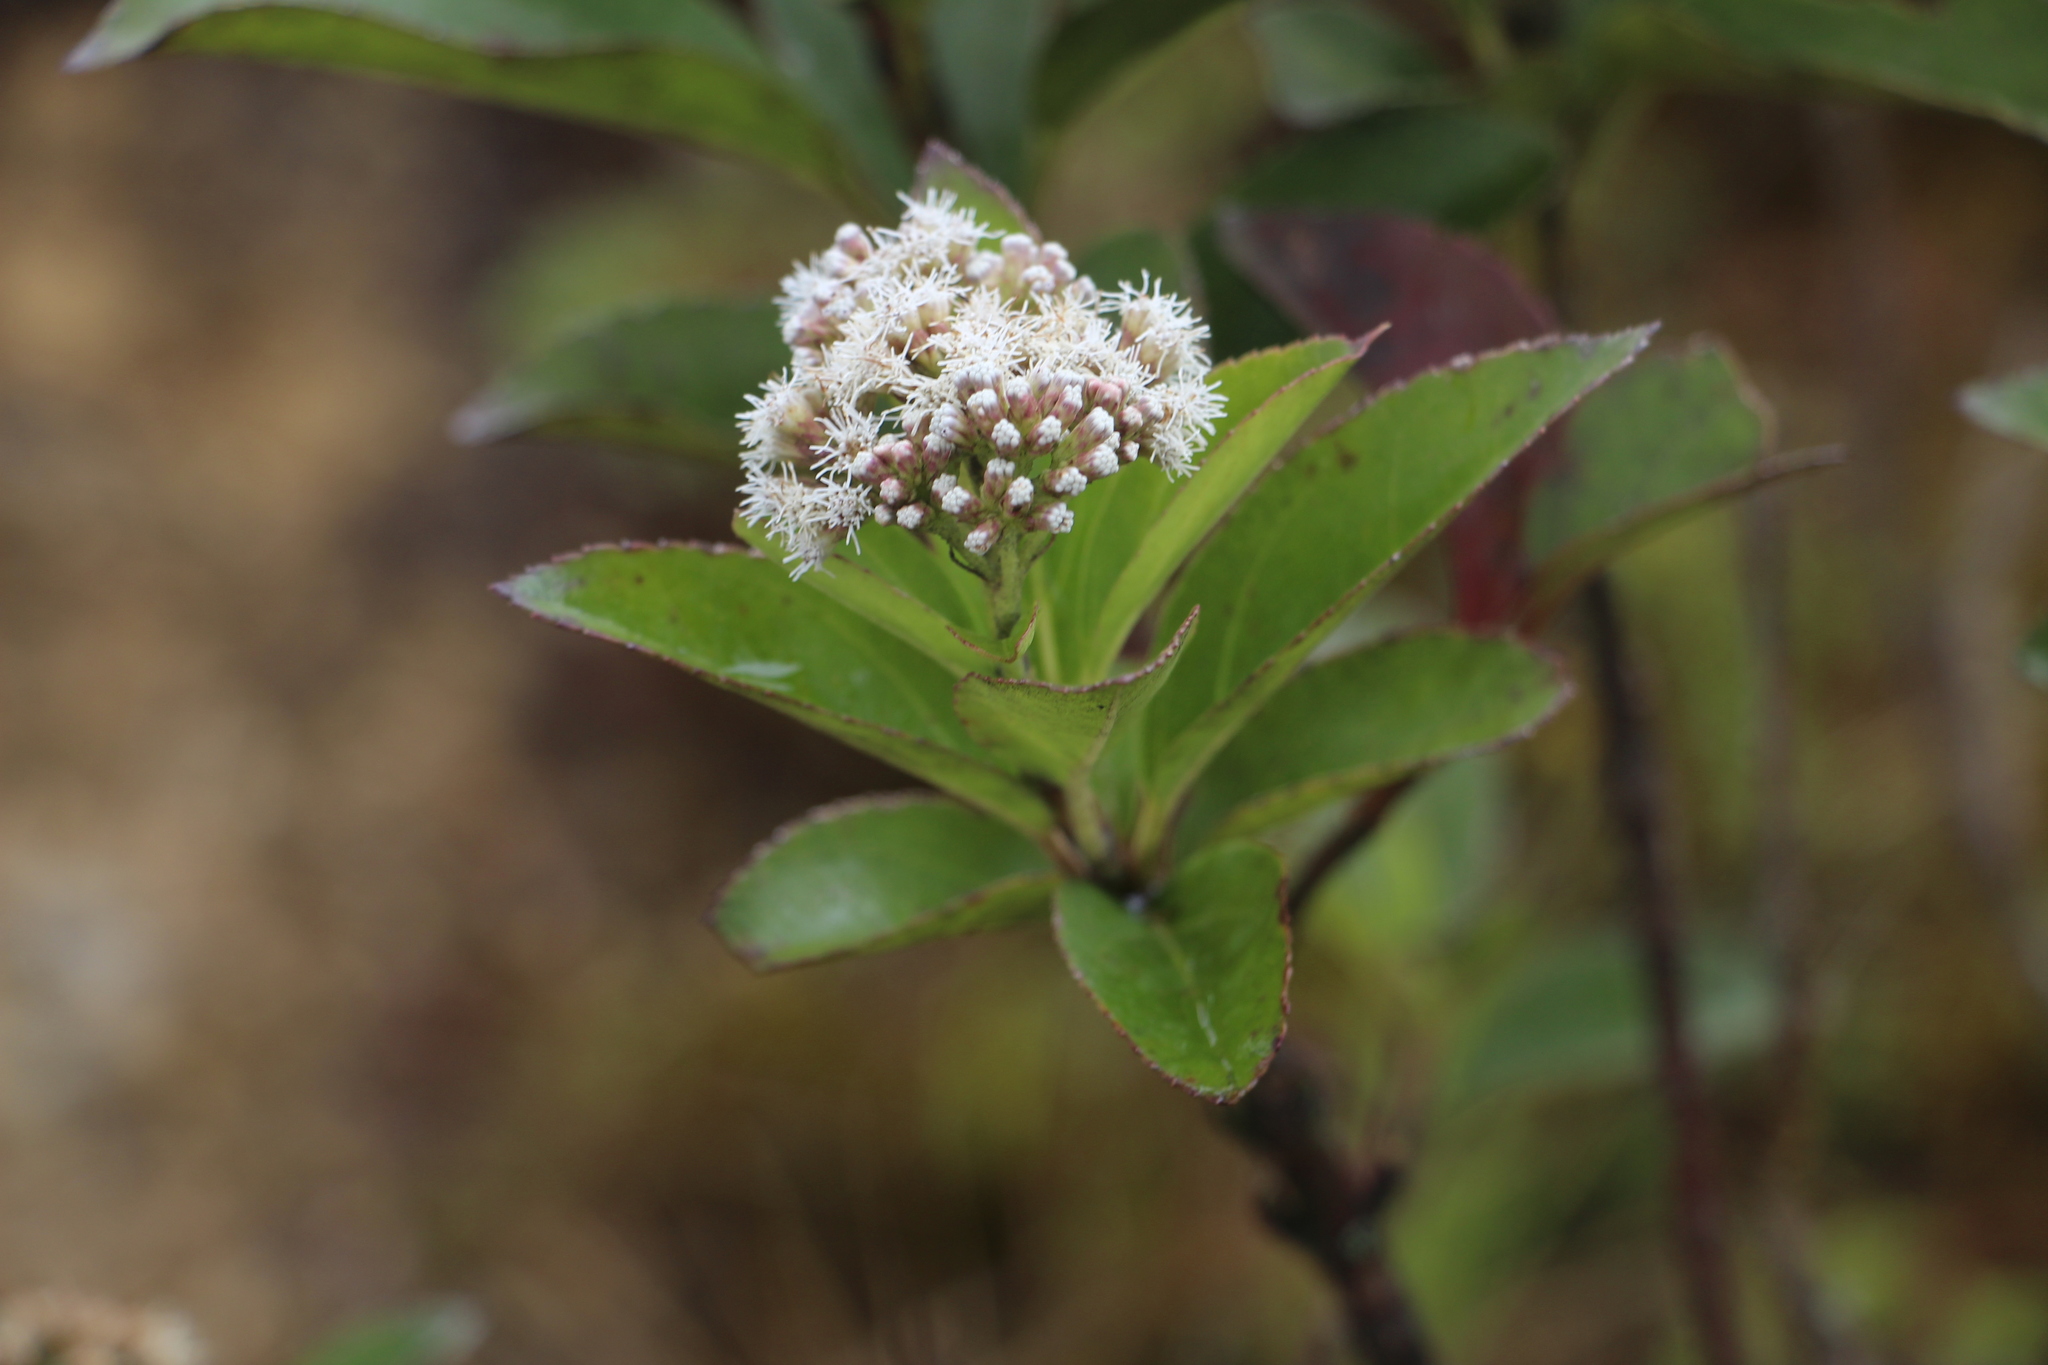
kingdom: Plantae
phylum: Tracheophyta
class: Magnoliopsida
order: Asterales
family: Asteraceae
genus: Ageratina
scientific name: Ageratina tinifolia
